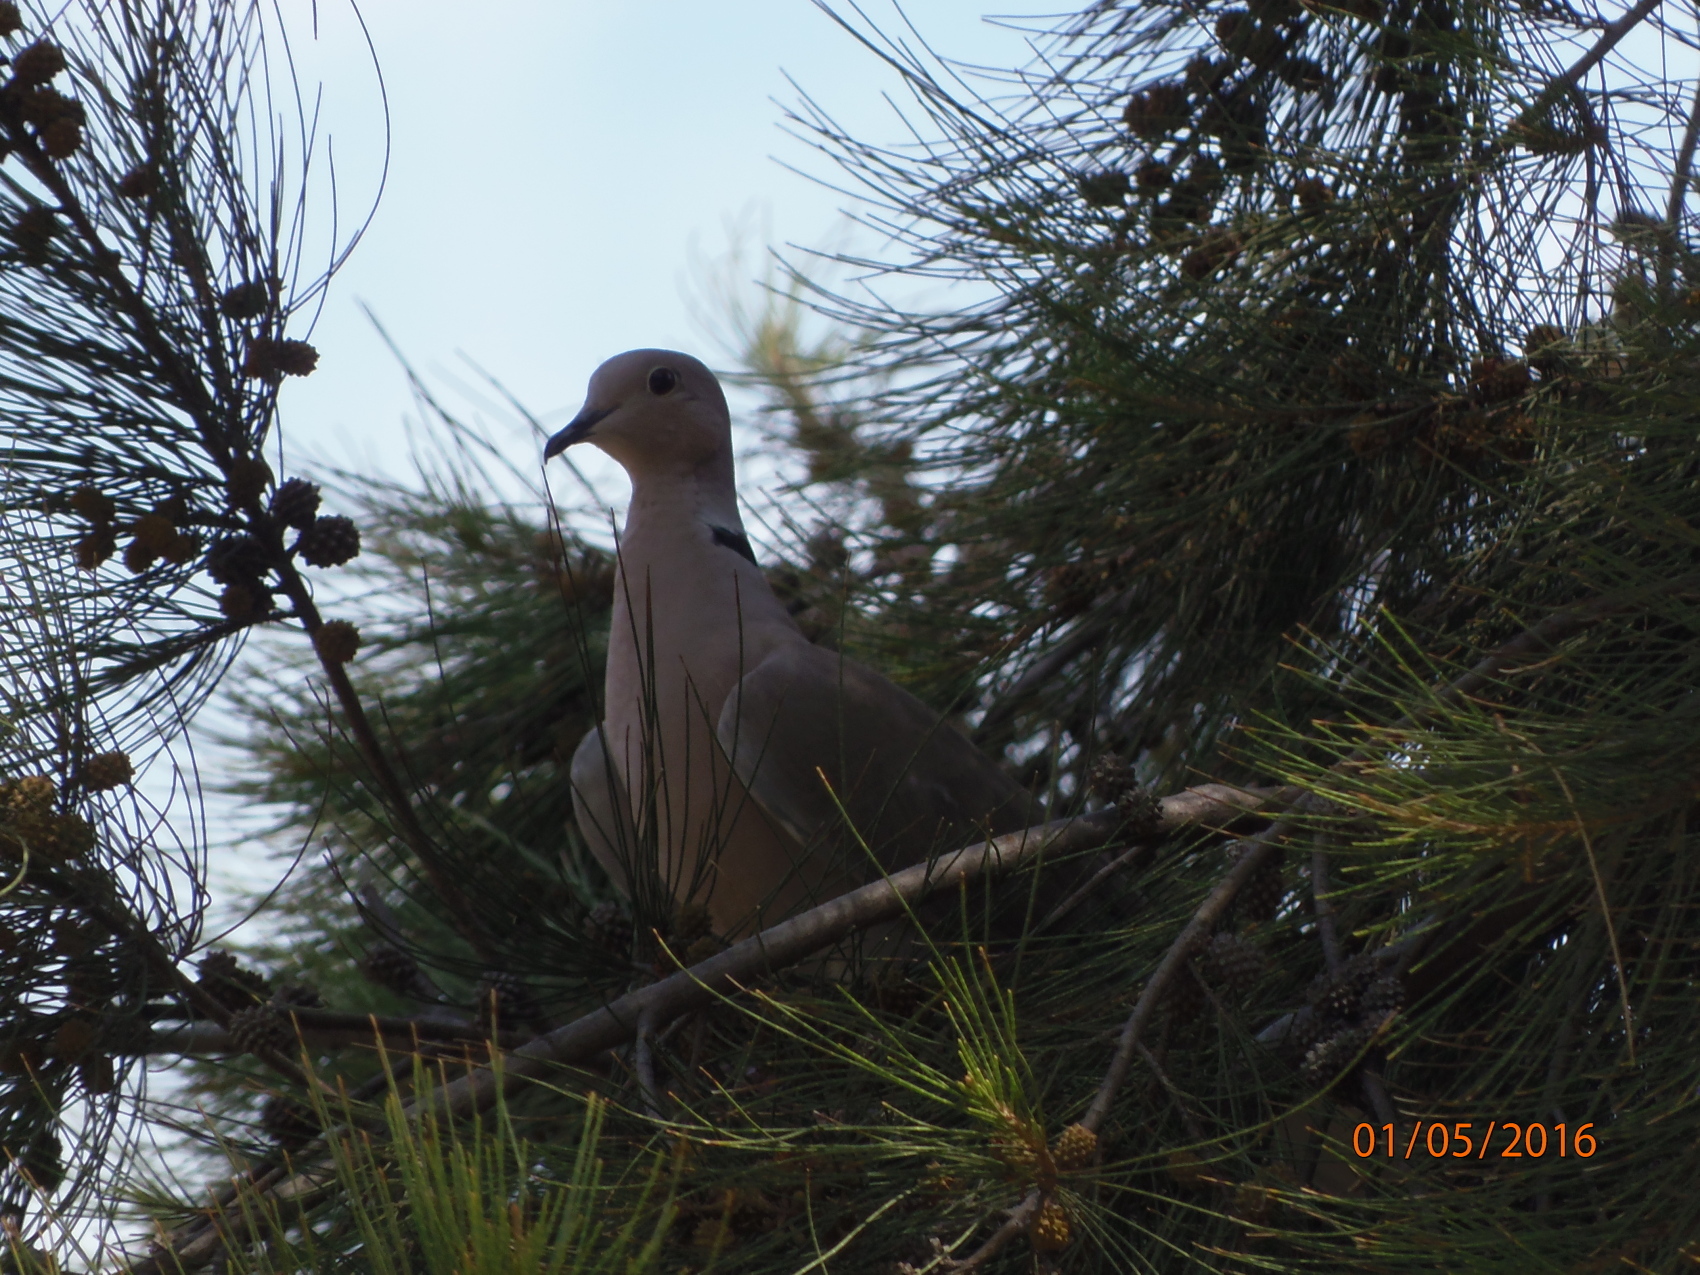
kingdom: Animalia
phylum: Chordata
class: Aves
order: Columbiformes
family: Columbidae
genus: Streptopelia
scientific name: Streptopelia decaocto
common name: Eurasian collared dove
